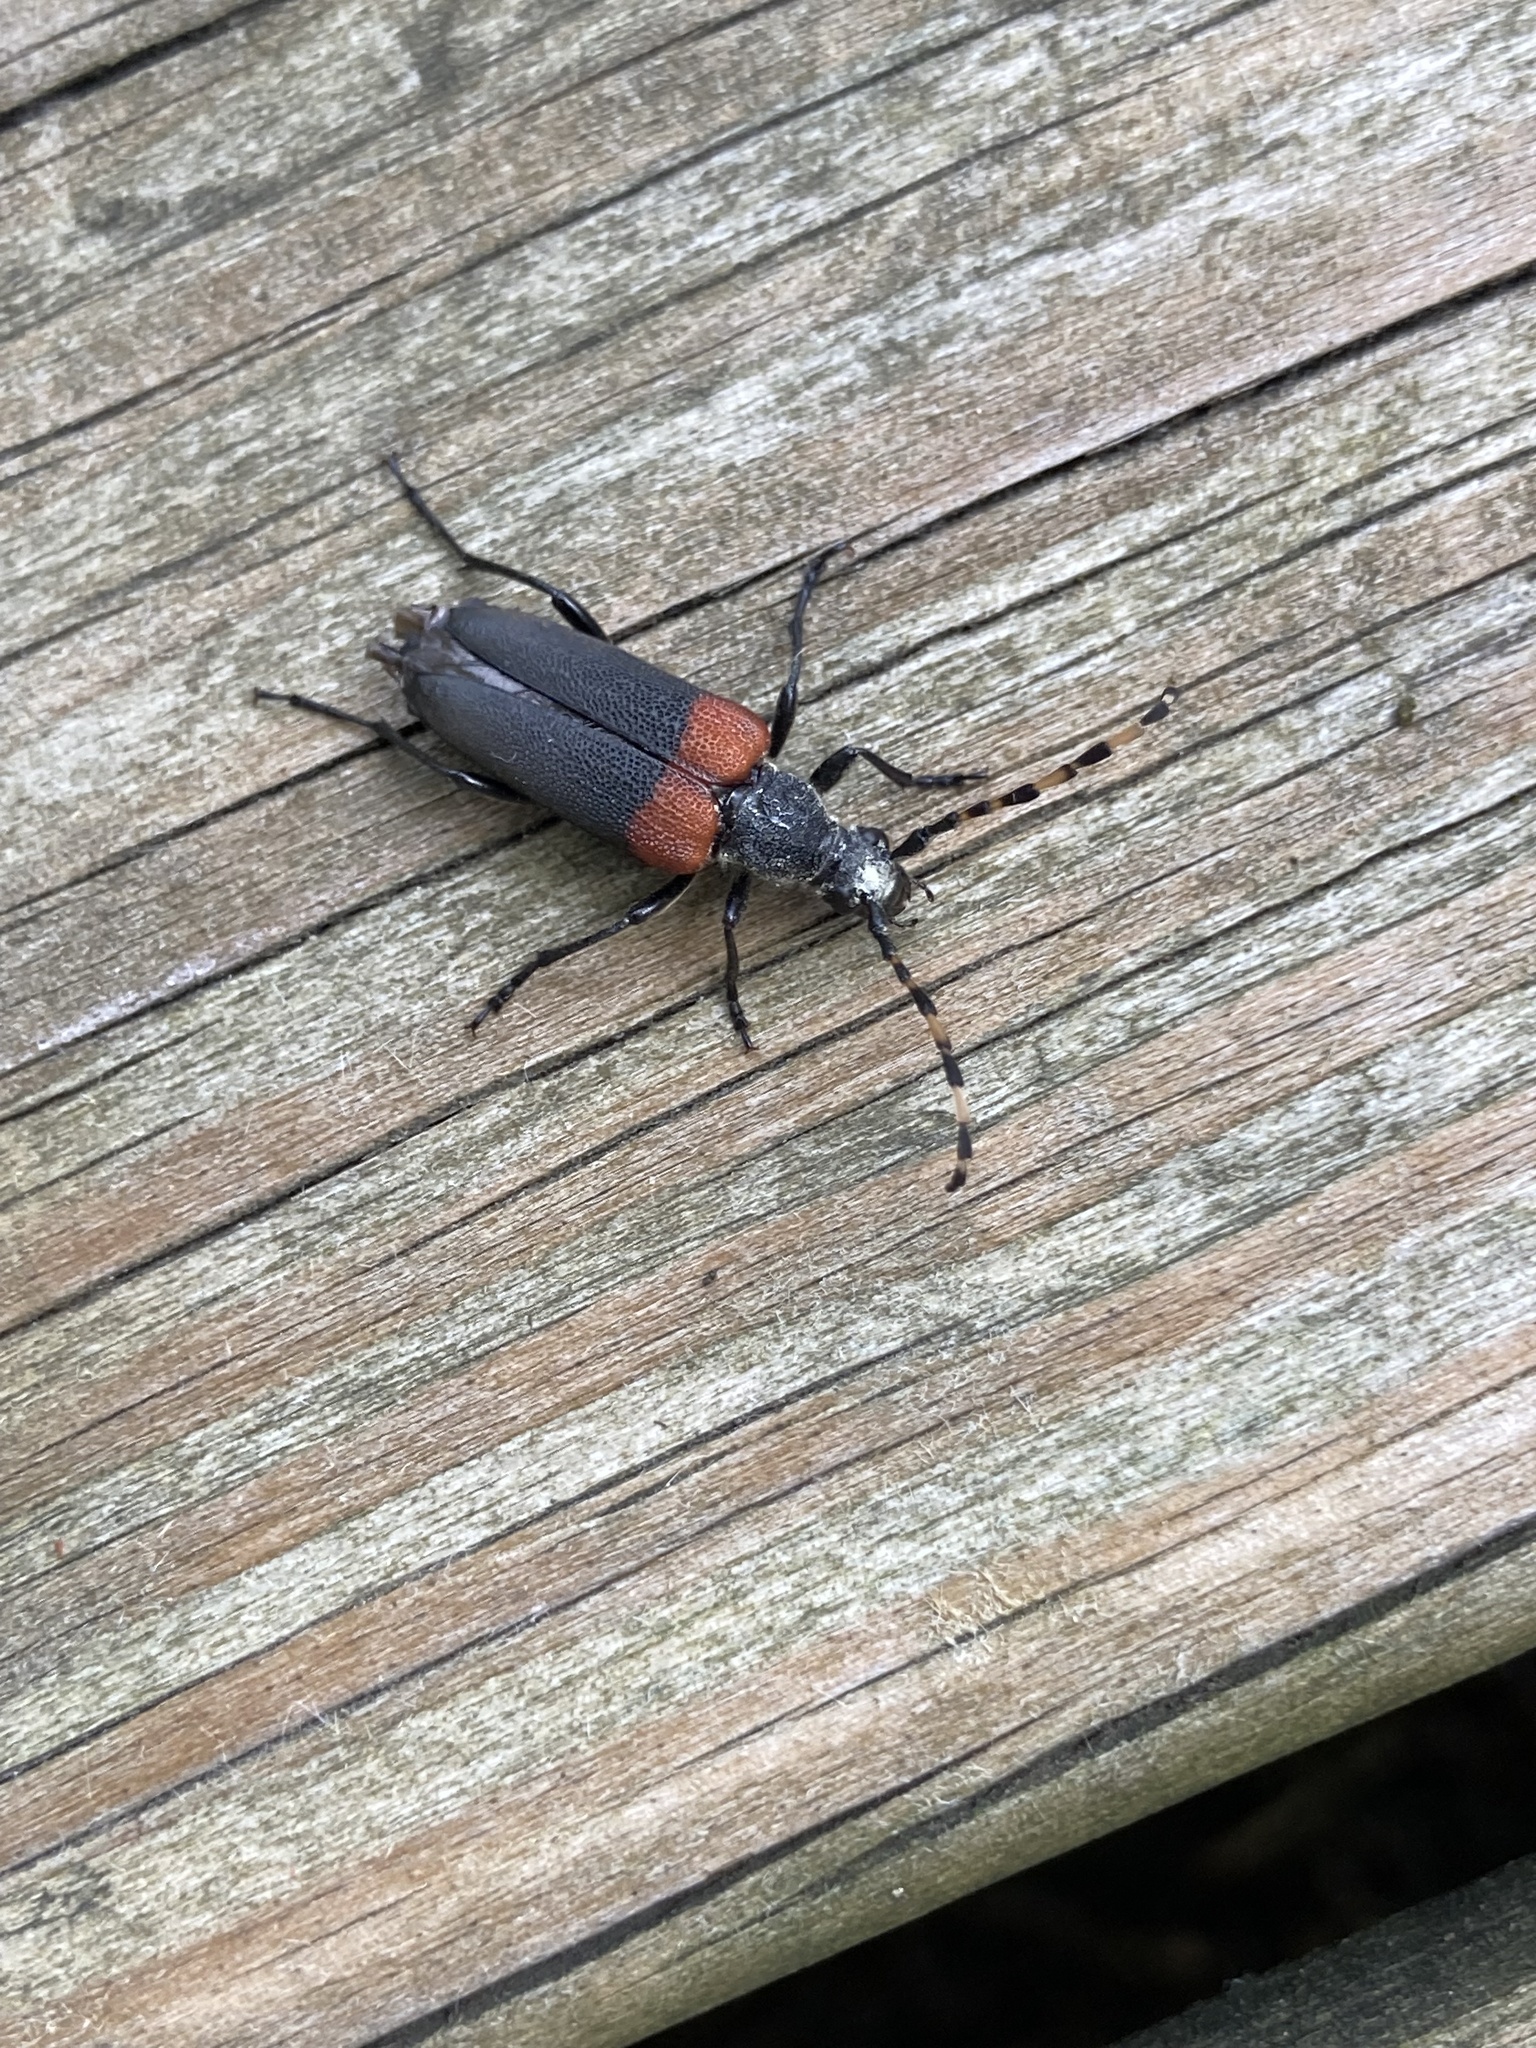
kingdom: Animalia
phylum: Arthropoda
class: Insecta
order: Coleoptera
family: Cerambycidae
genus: Stictoleptura
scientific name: Stictoleptura canadensis
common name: Red-shouldered pine borer
